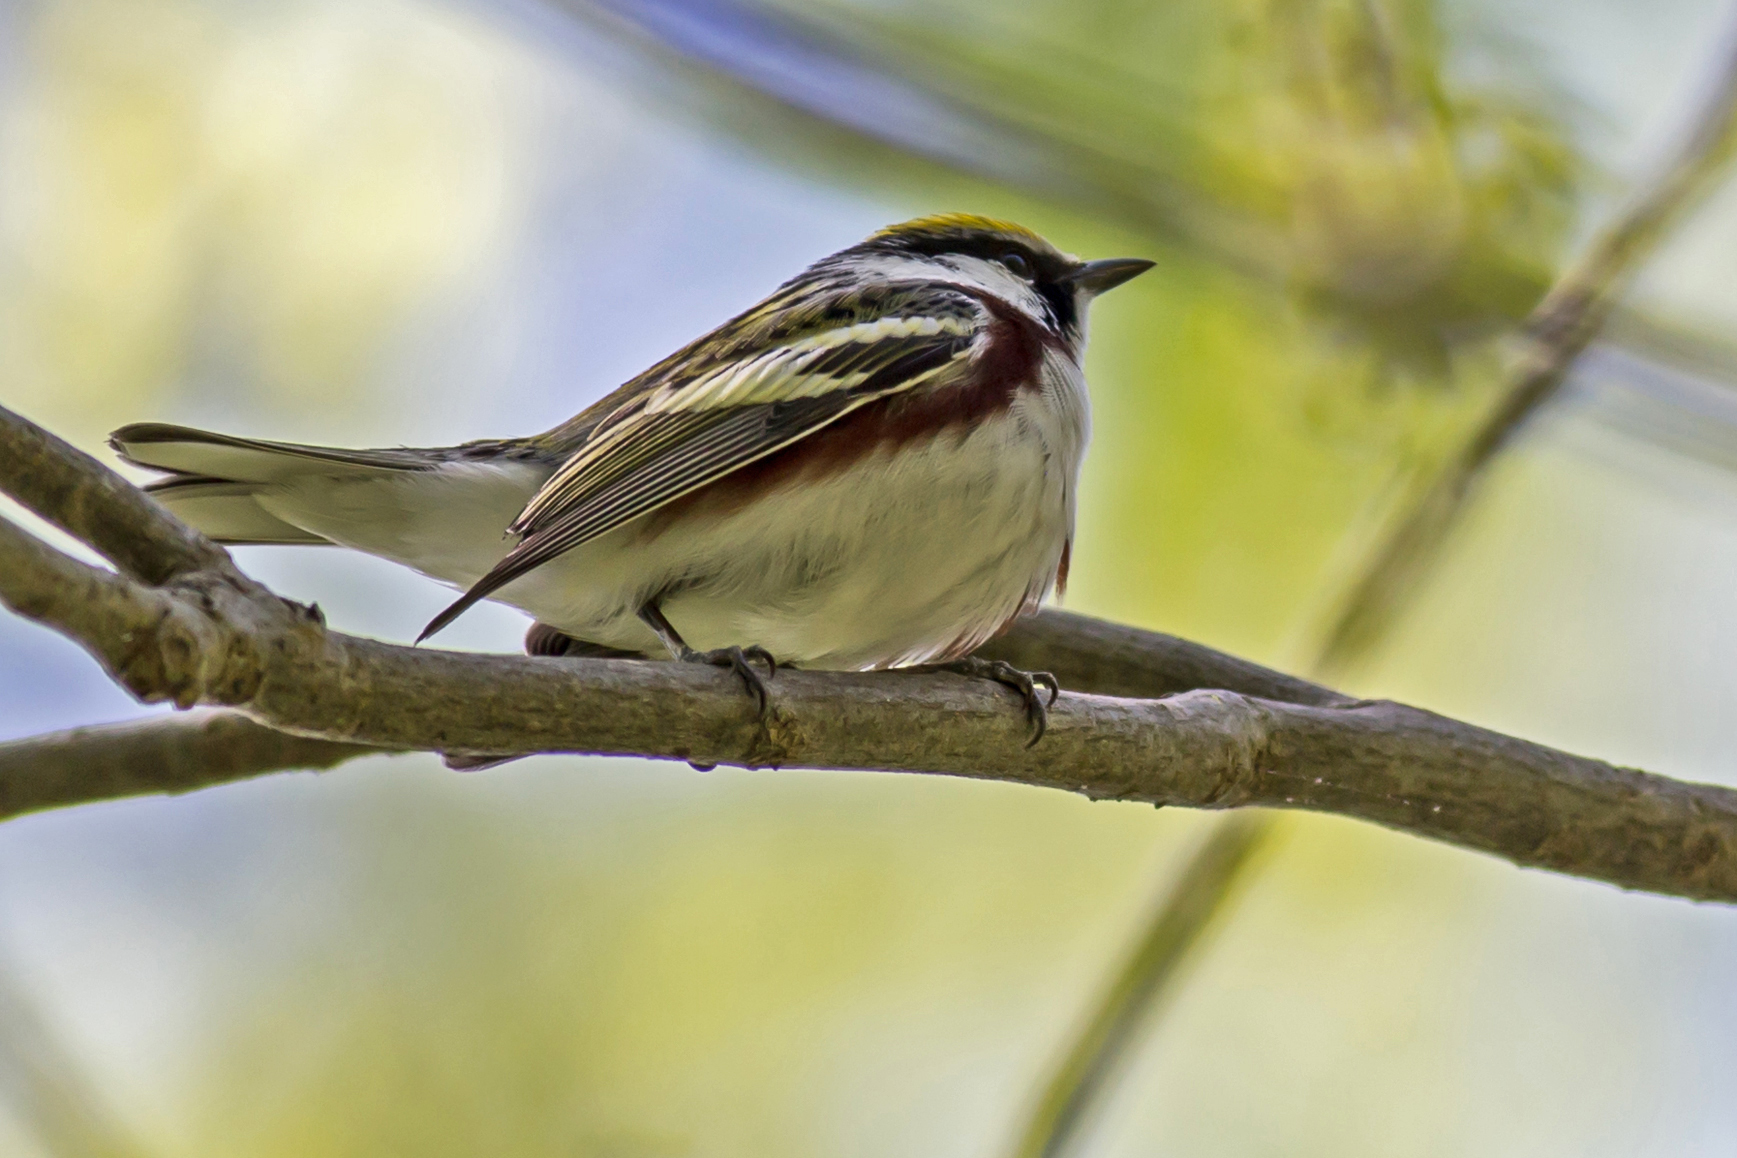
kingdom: Animalia
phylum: Chordata
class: Aves
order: Passeriformes
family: Parulidae
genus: Setophaga
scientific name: Setophaga pensylvanica
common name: Chestnut-sided warbler
